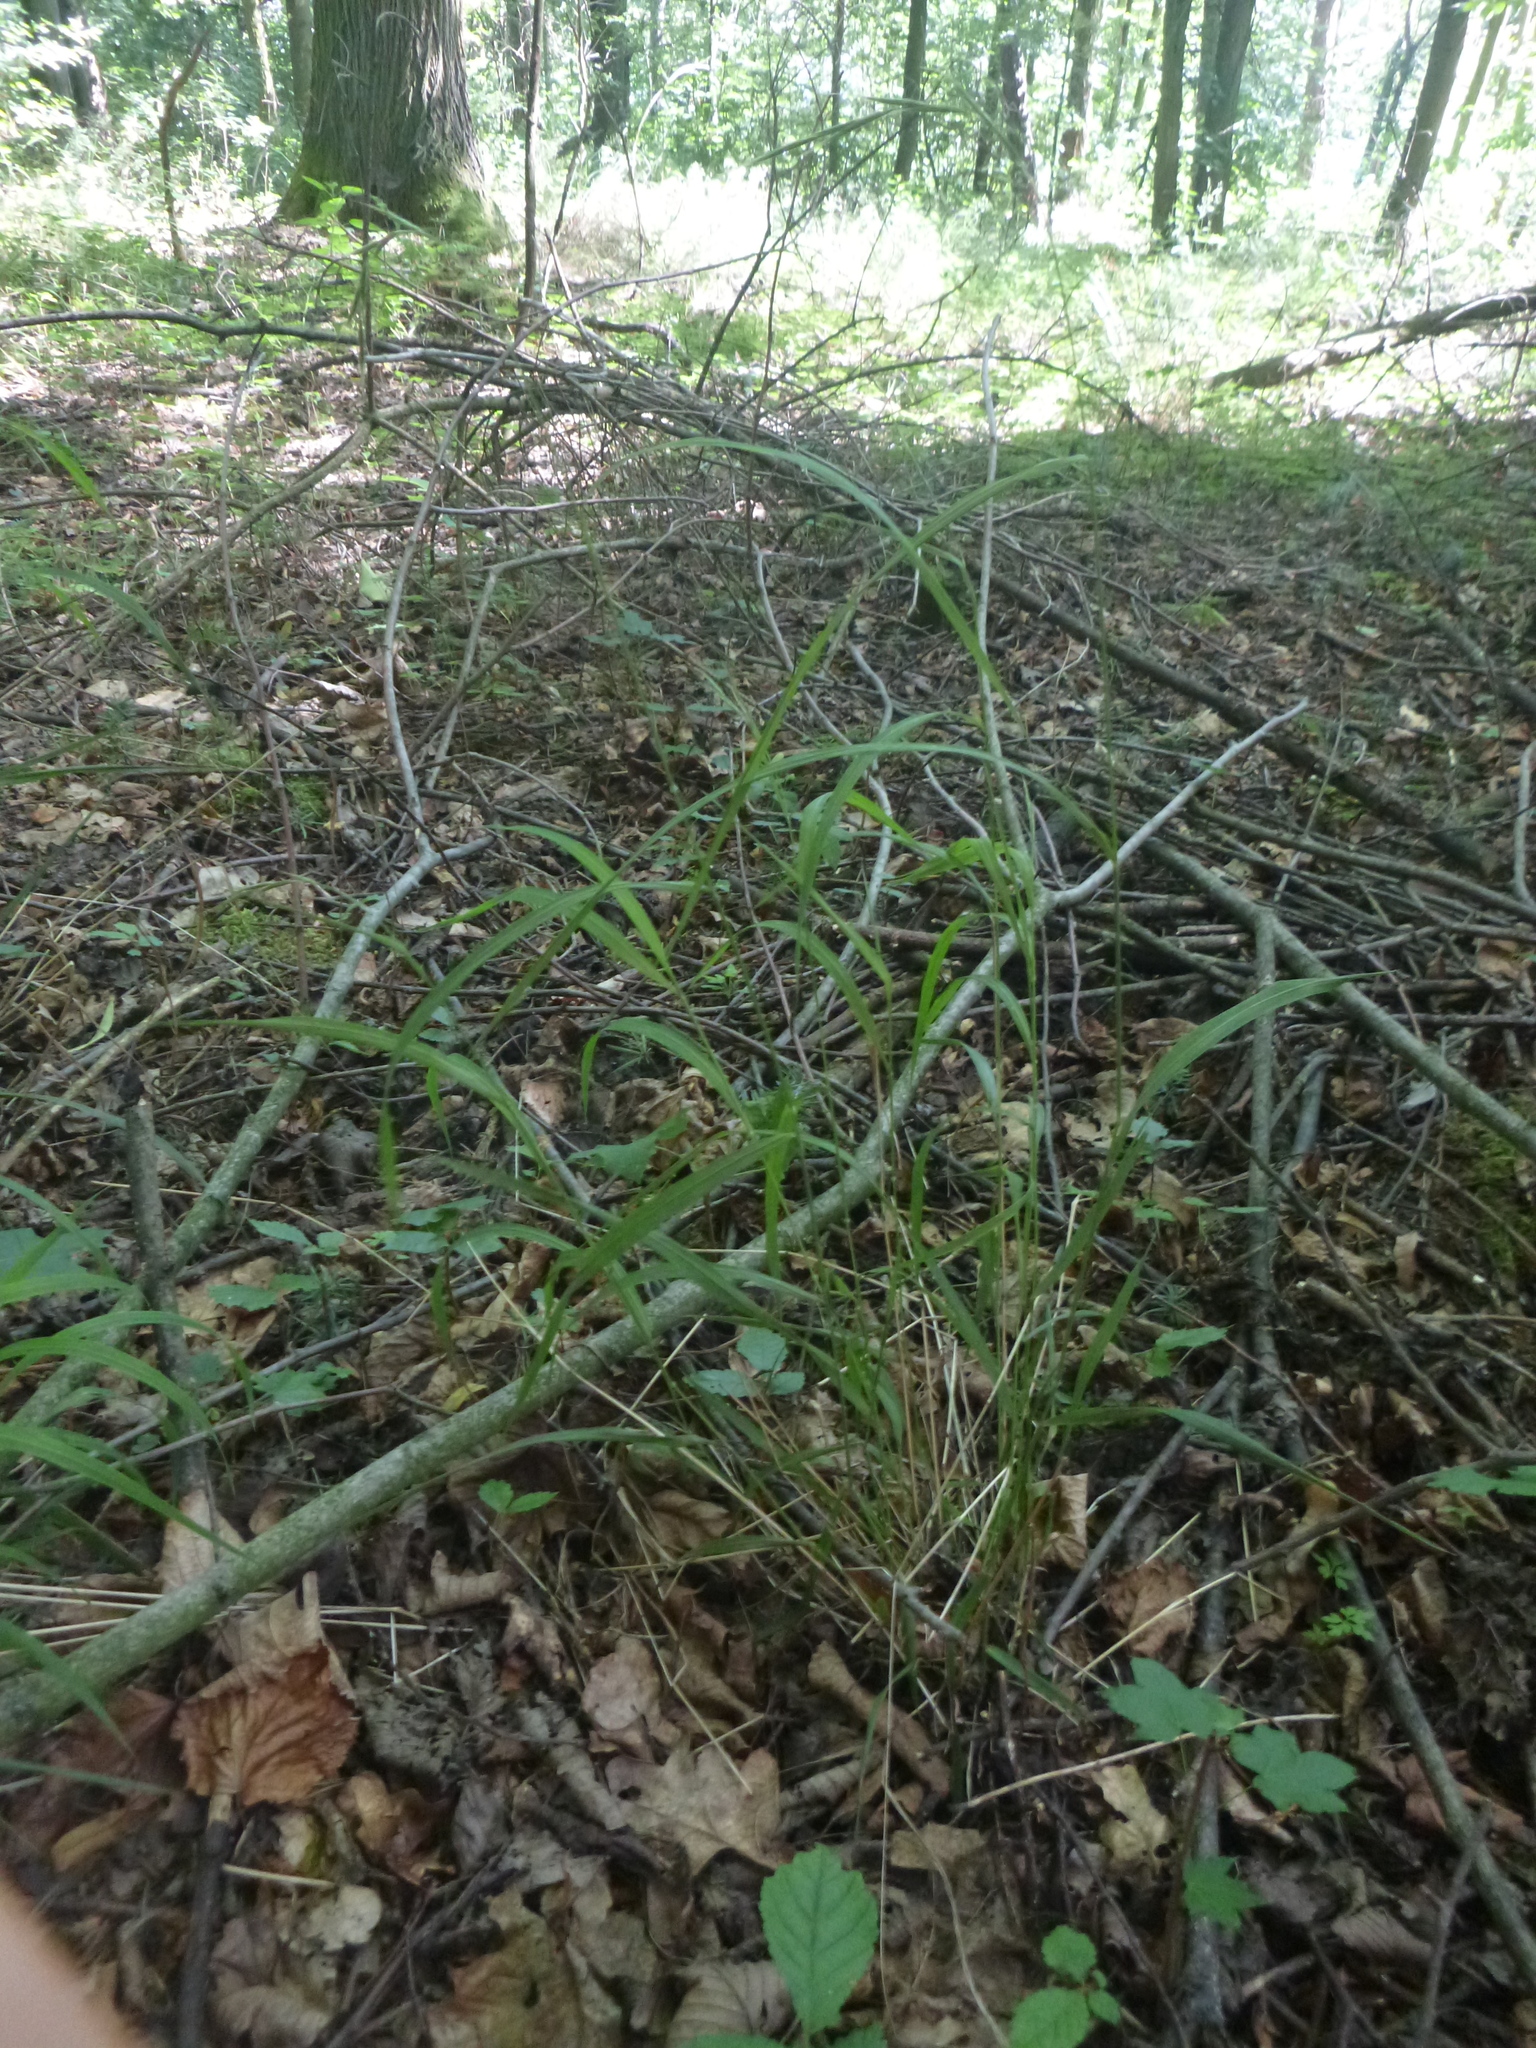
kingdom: Plantae
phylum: Tracheophyta
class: Liliopsida
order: Poales
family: Poaceae
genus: Brachypodium
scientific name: Brachypodium sylvaticum
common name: False-brome
